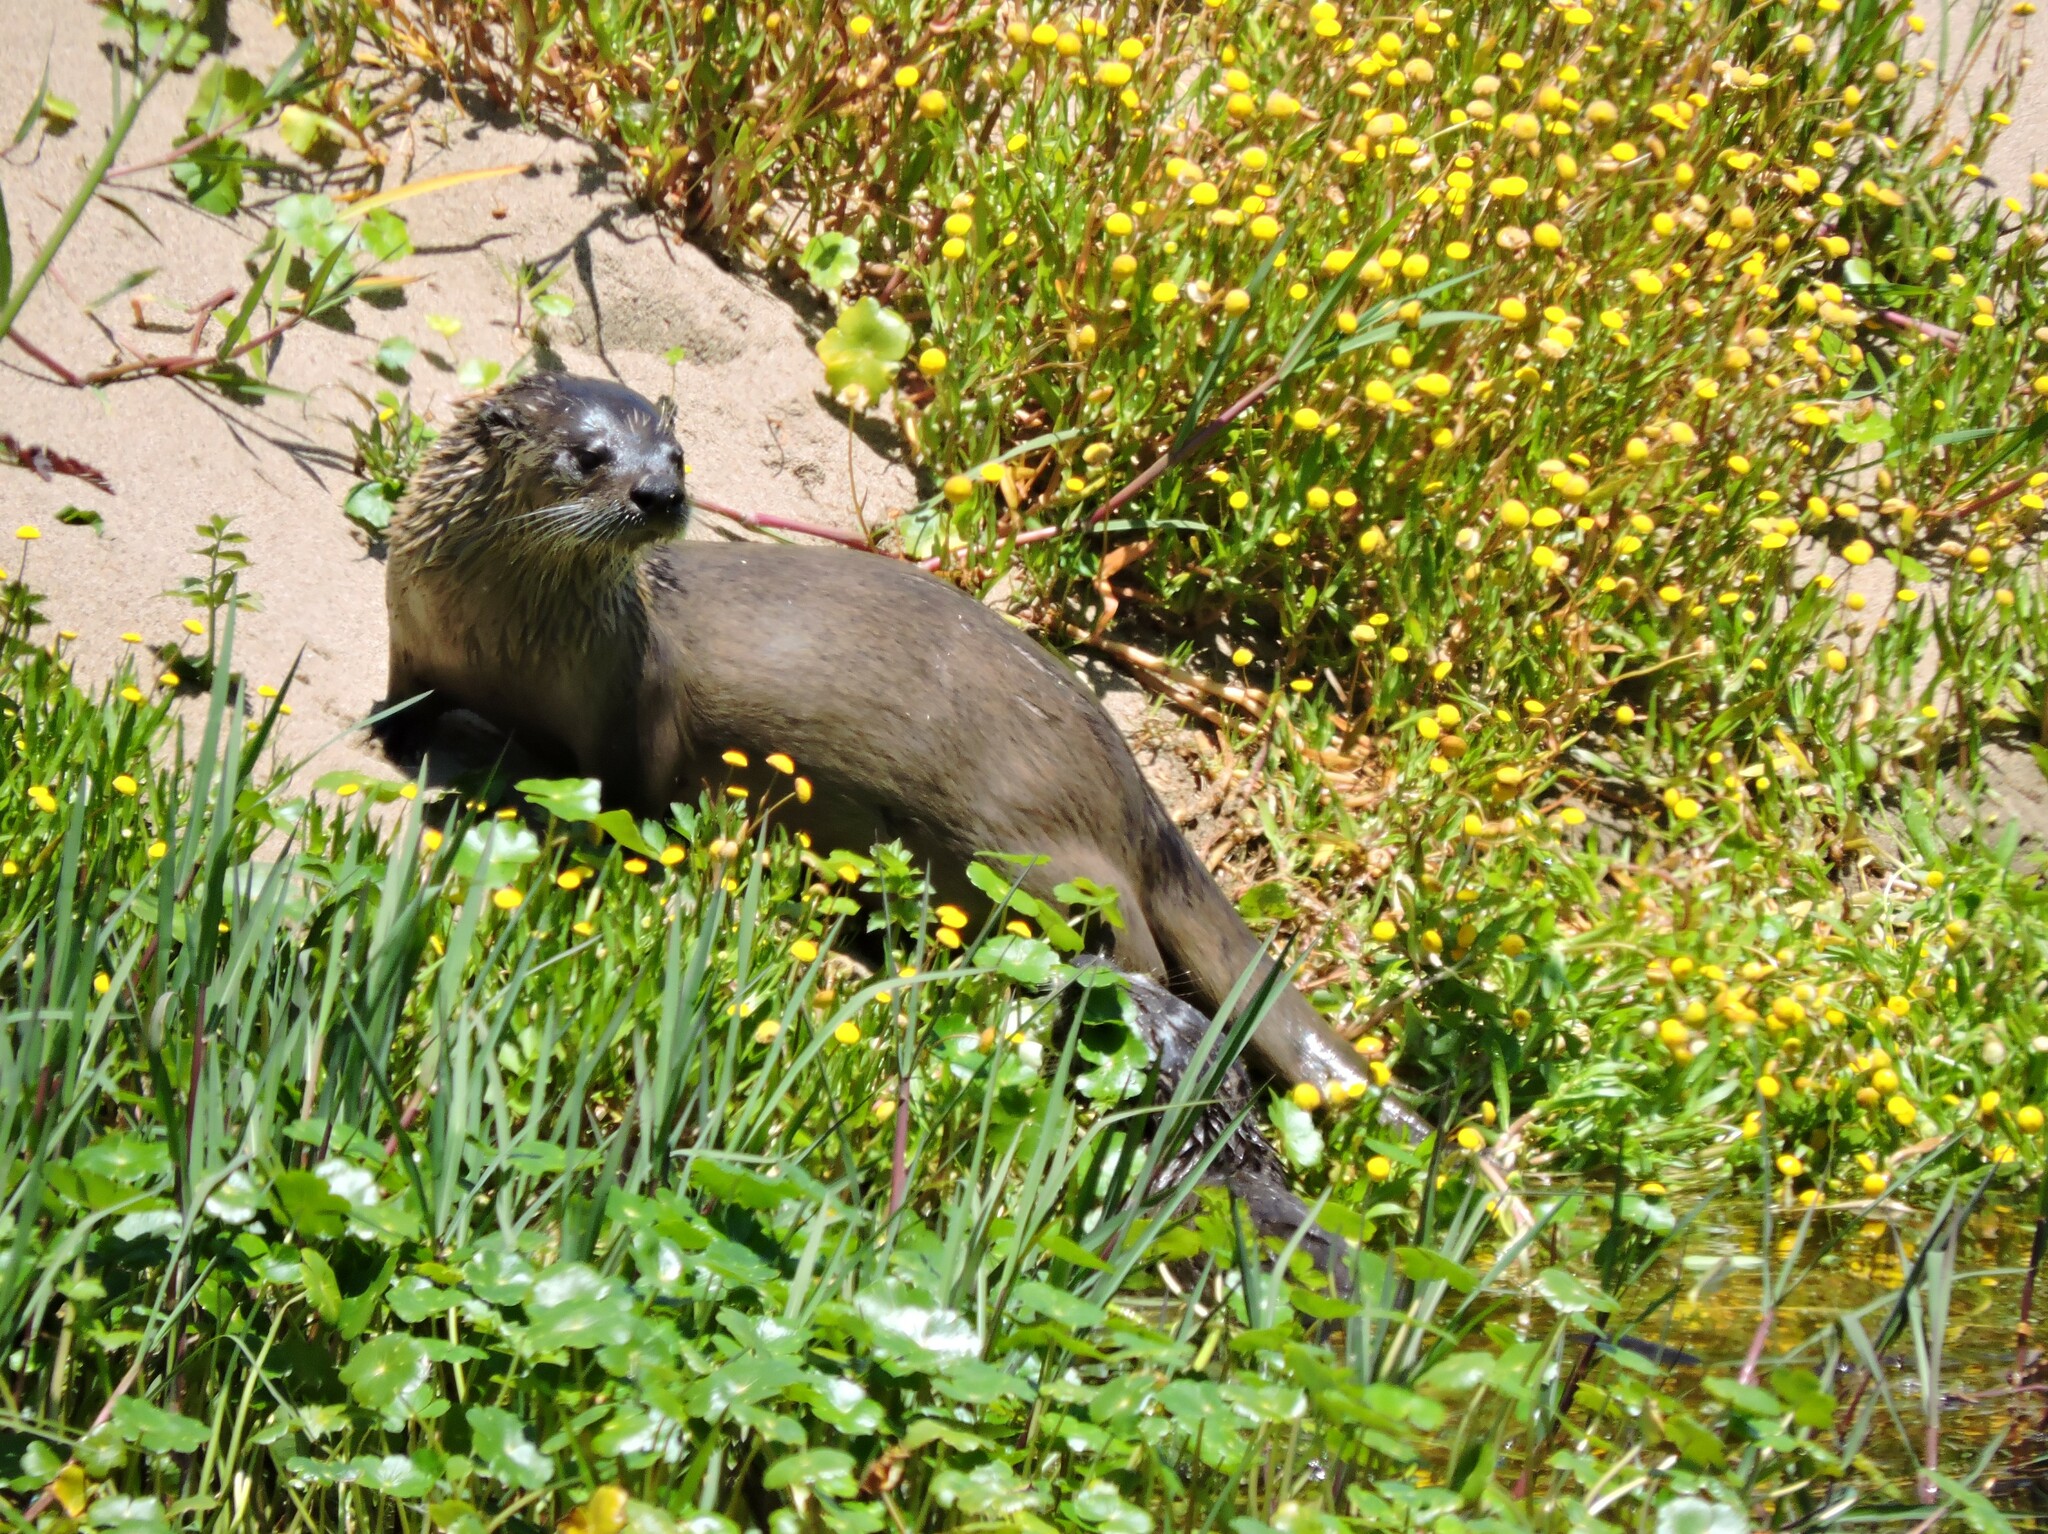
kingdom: Animalia
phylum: Chordata
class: Mammalia
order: Carnivora
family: Mustelidae
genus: Lontra
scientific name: Lontra canadensis
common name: North american river otter
